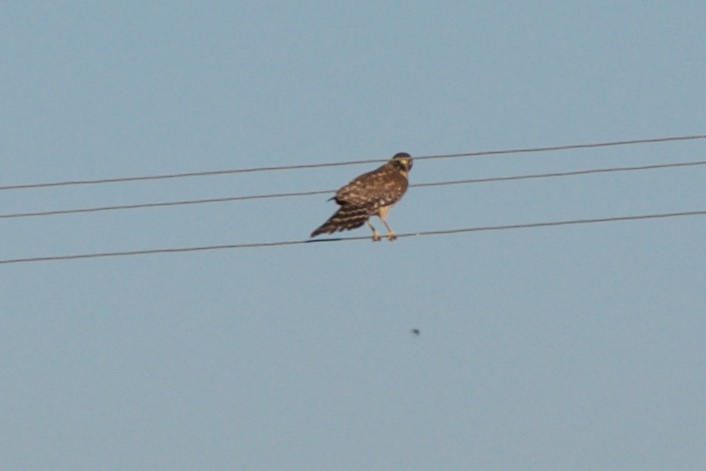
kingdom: Animalia
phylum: Chordata
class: Aves
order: Accipitriformes
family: Accipitridae
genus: Buteo
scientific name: Buteo lineatus
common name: Red-shouldered hawk
